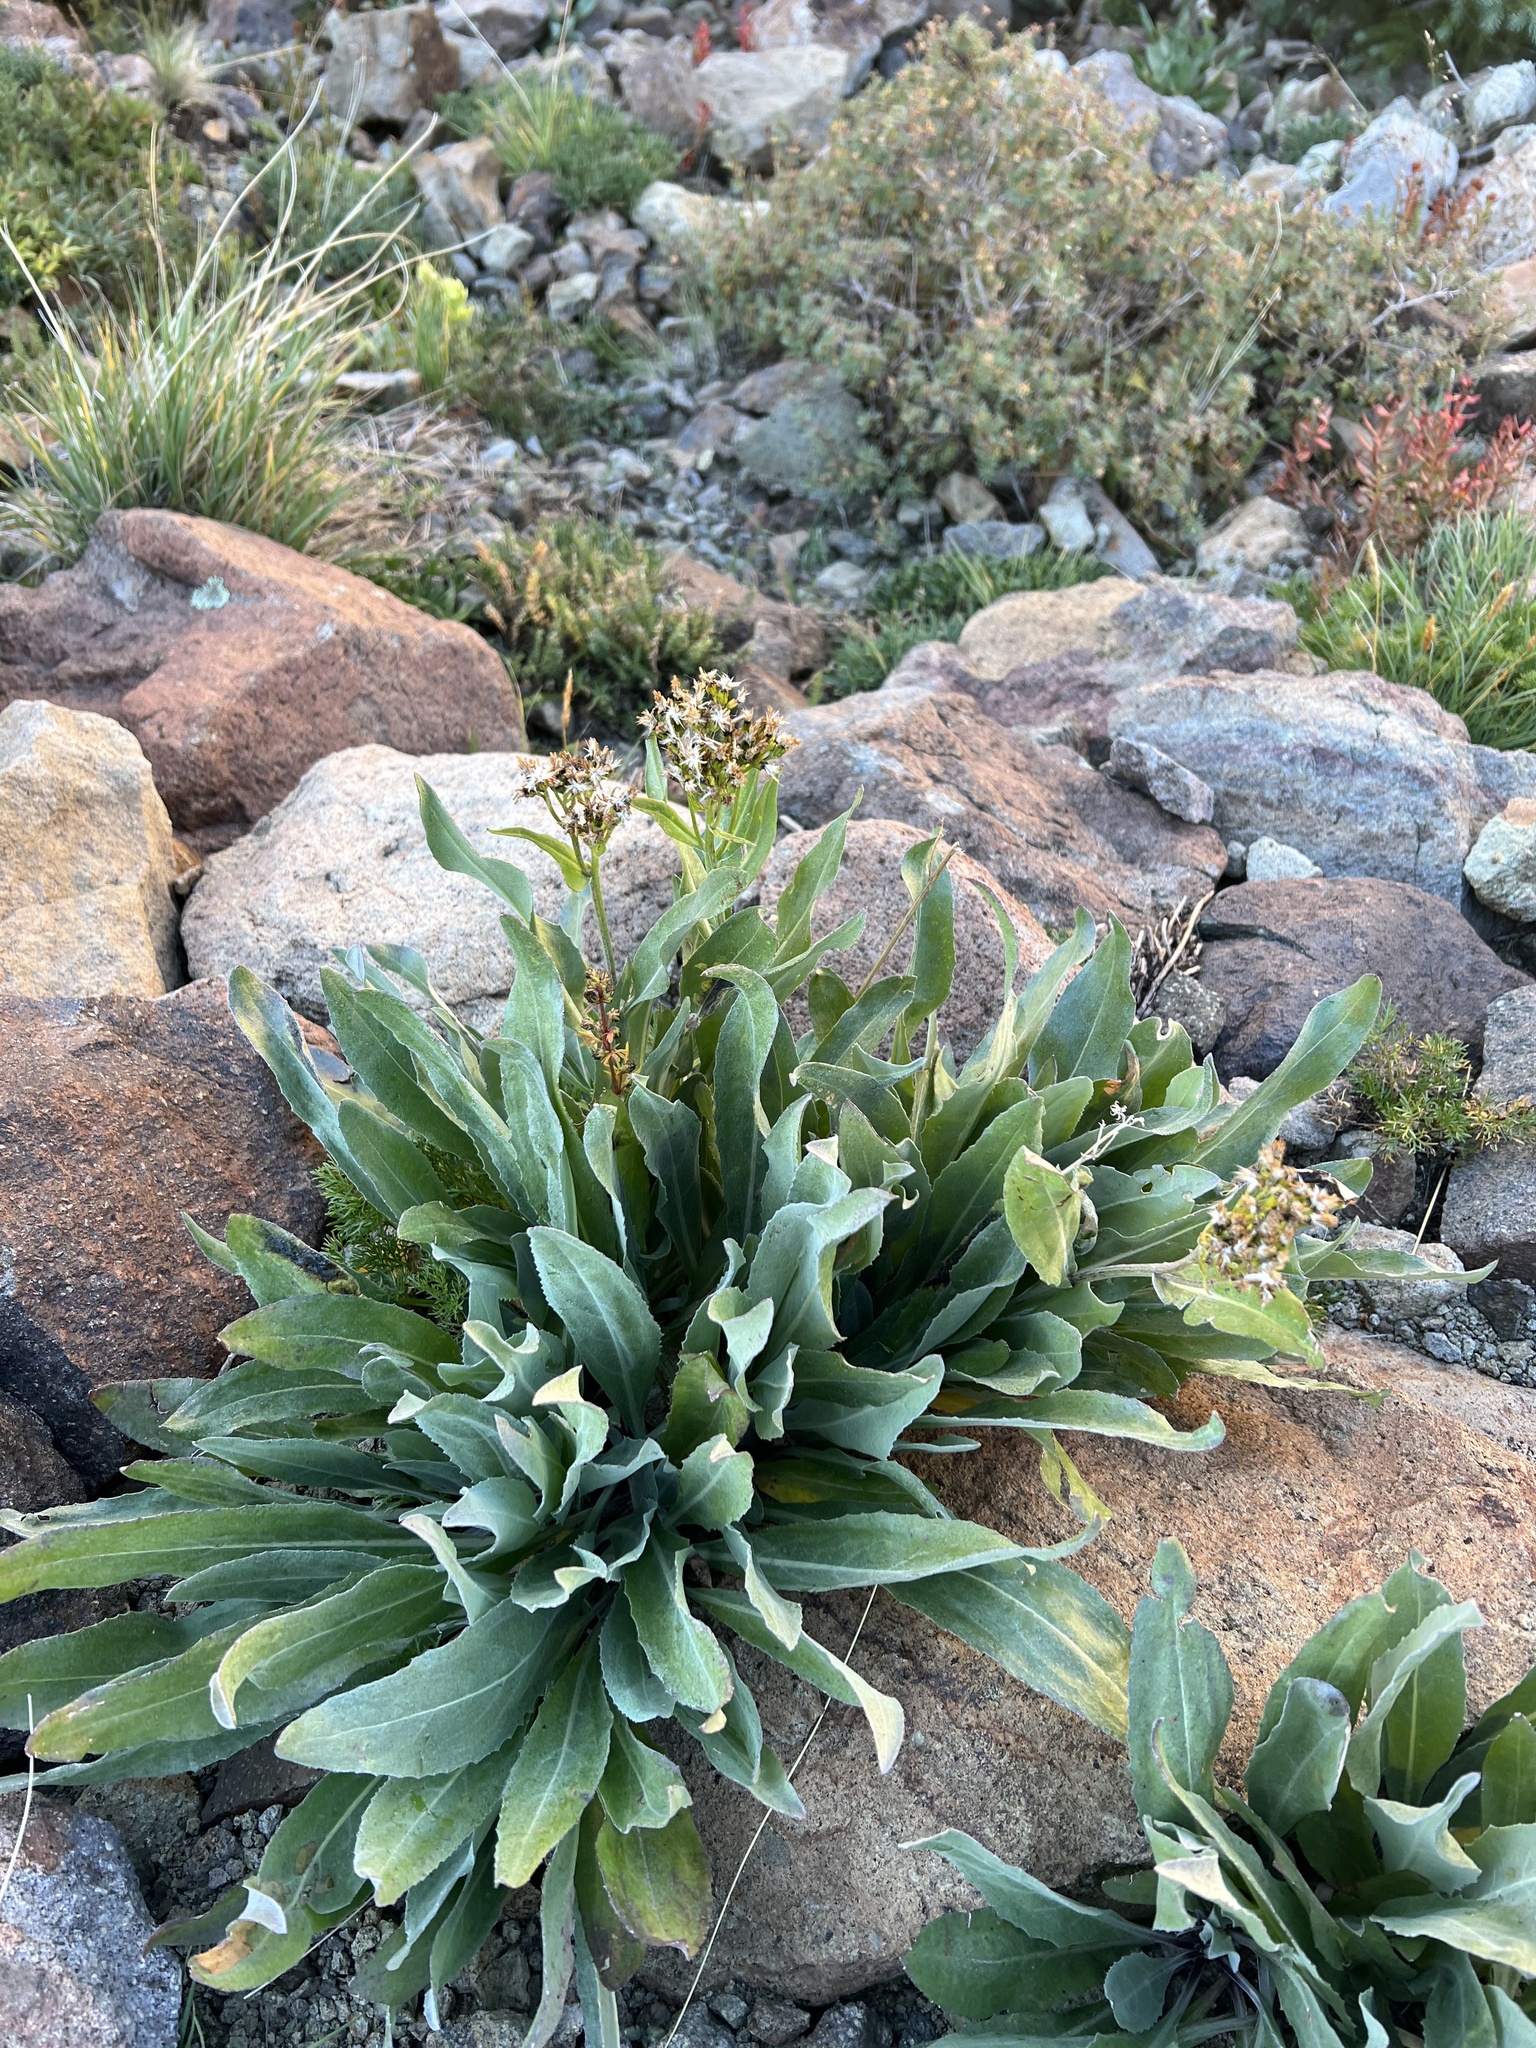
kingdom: Plantae
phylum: Tracheophyta
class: Magnoliopsida
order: Asterales
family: Asteraceae
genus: Senecio
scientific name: Senecio atratus
